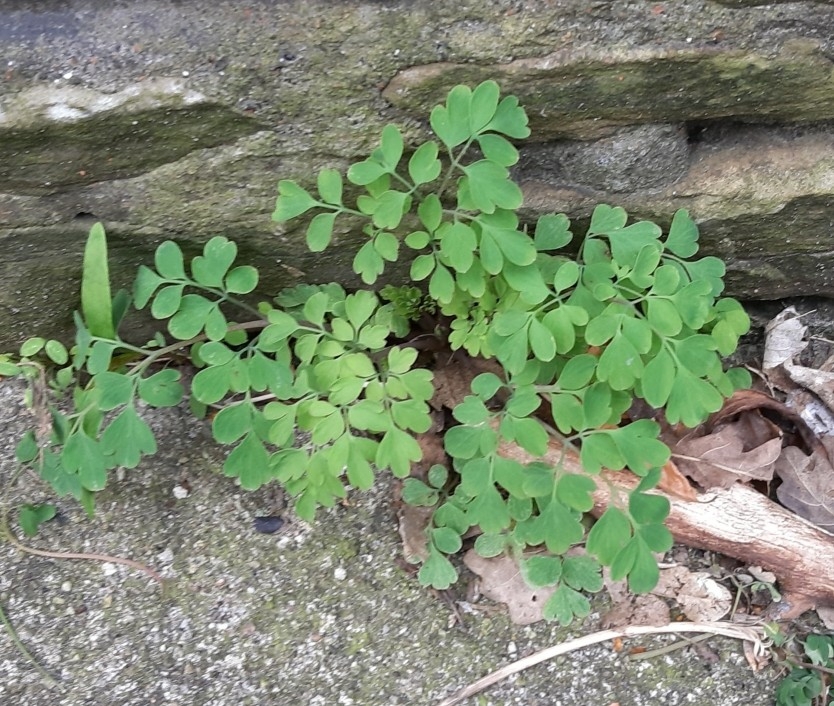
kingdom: Plantae
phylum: Tracheophyta
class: Magnoliopsida
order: Ranunculales
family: Papaveraceae
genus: Pseudofumaria
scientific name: Pseudofumaria lutea
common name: Yellow corydalis
